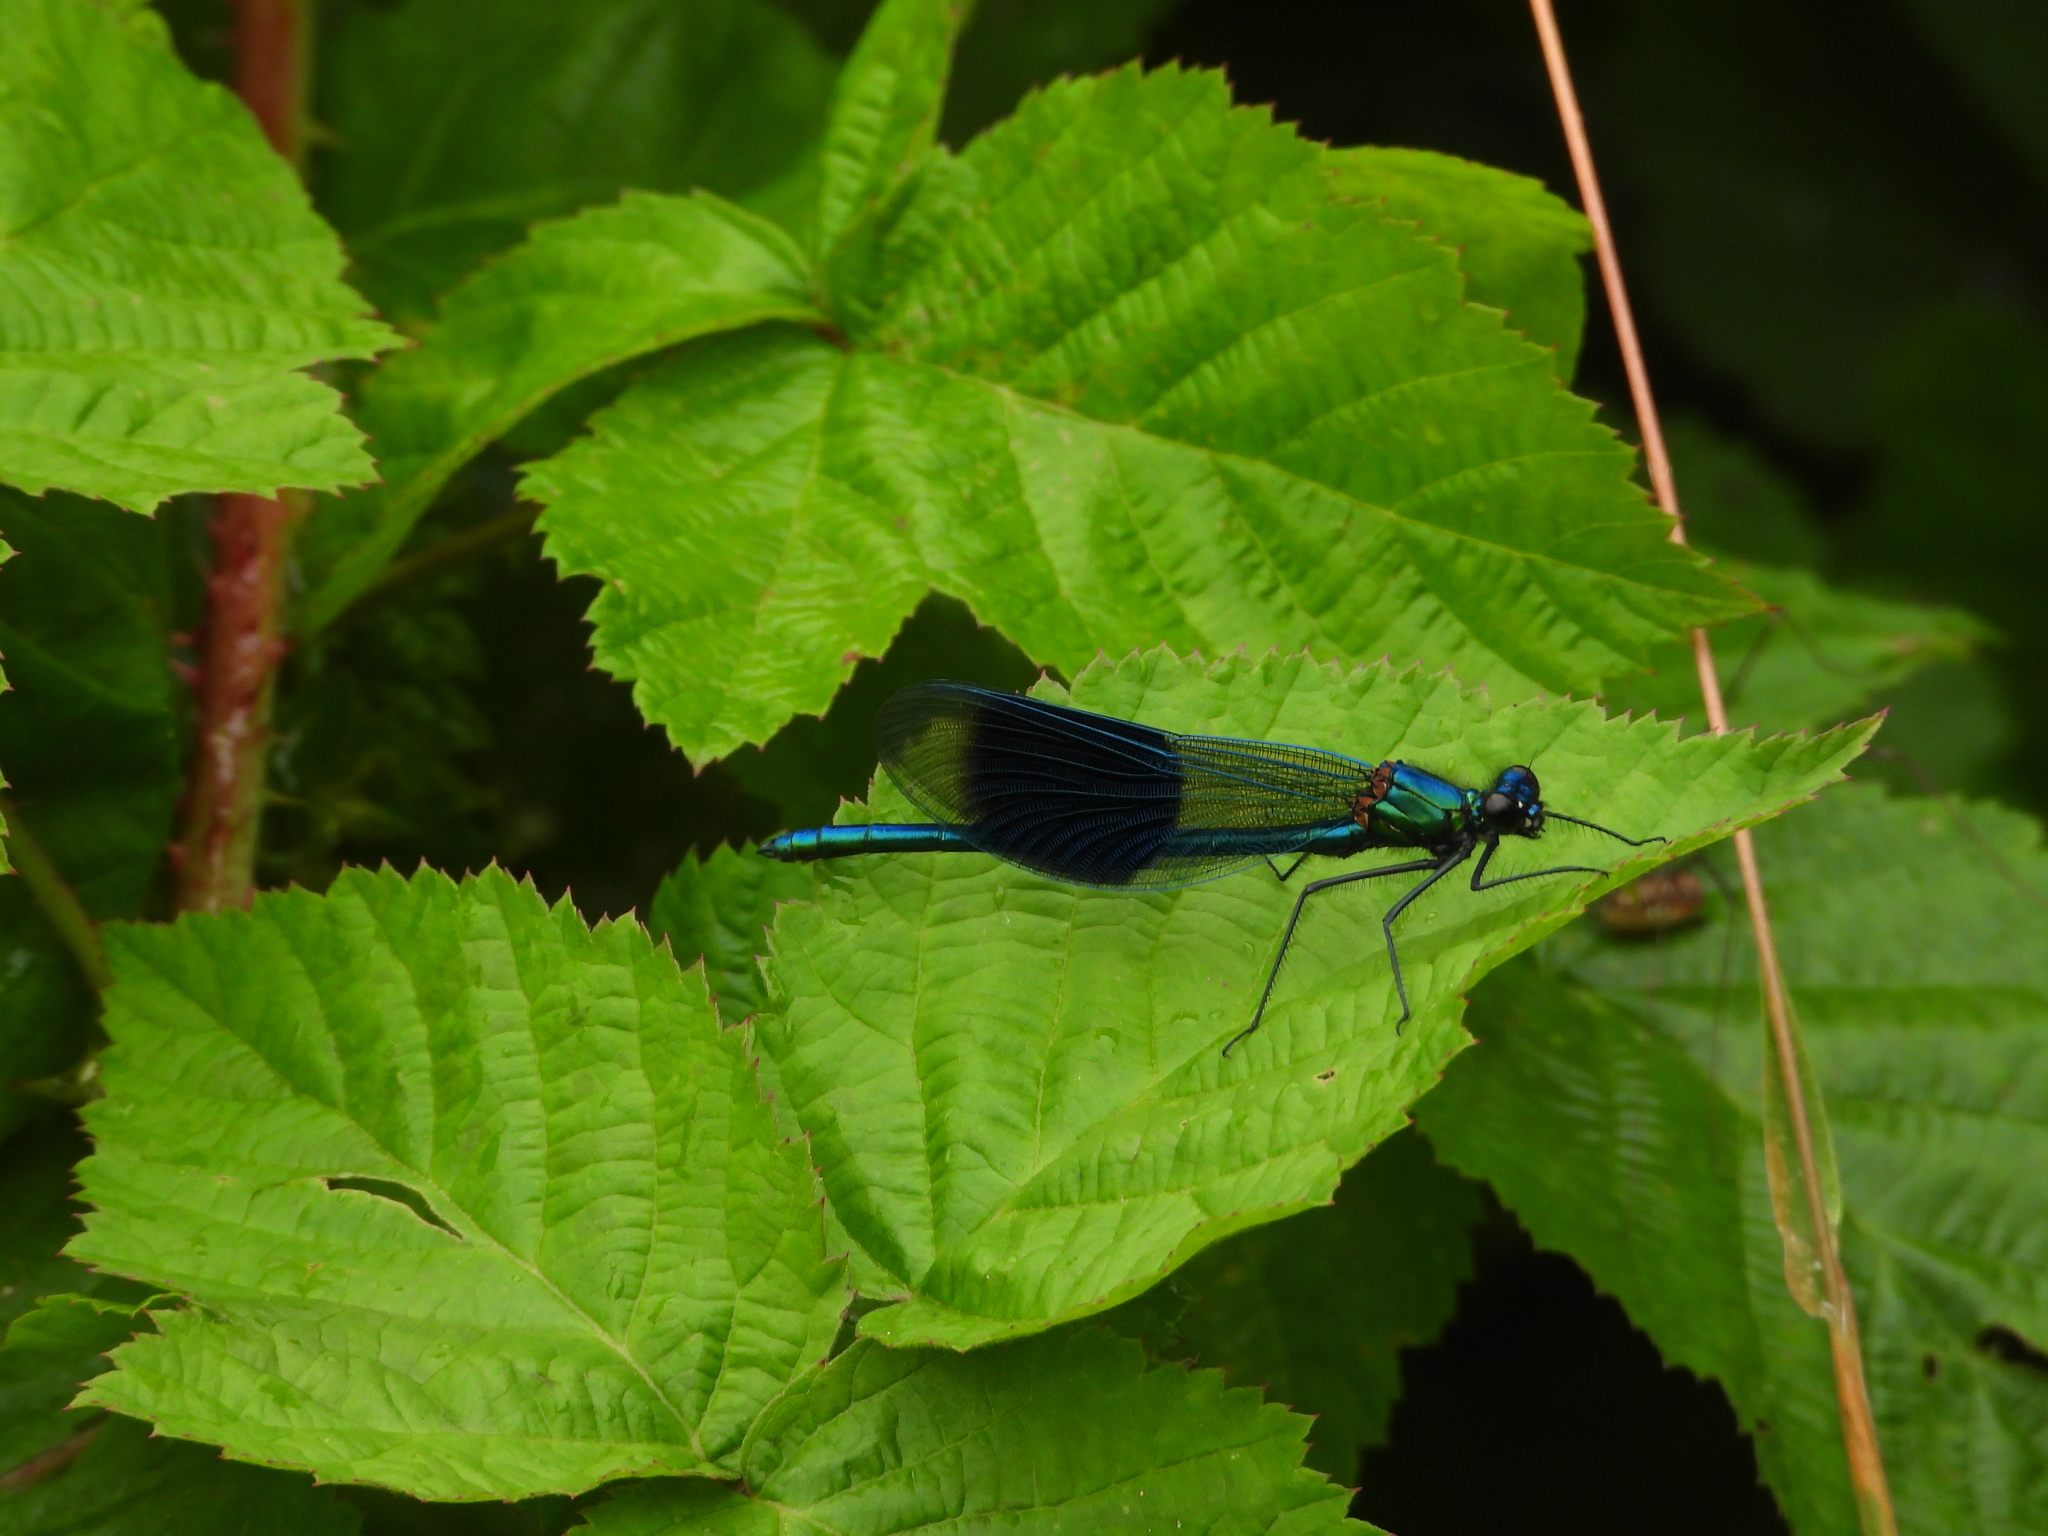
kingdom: Animalia
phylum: Arthropoda
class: Insecta
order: Odonata
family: Calopterygidae
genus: Calopteryx
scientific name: Calopteryx splendens
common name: Banded demoiselle
